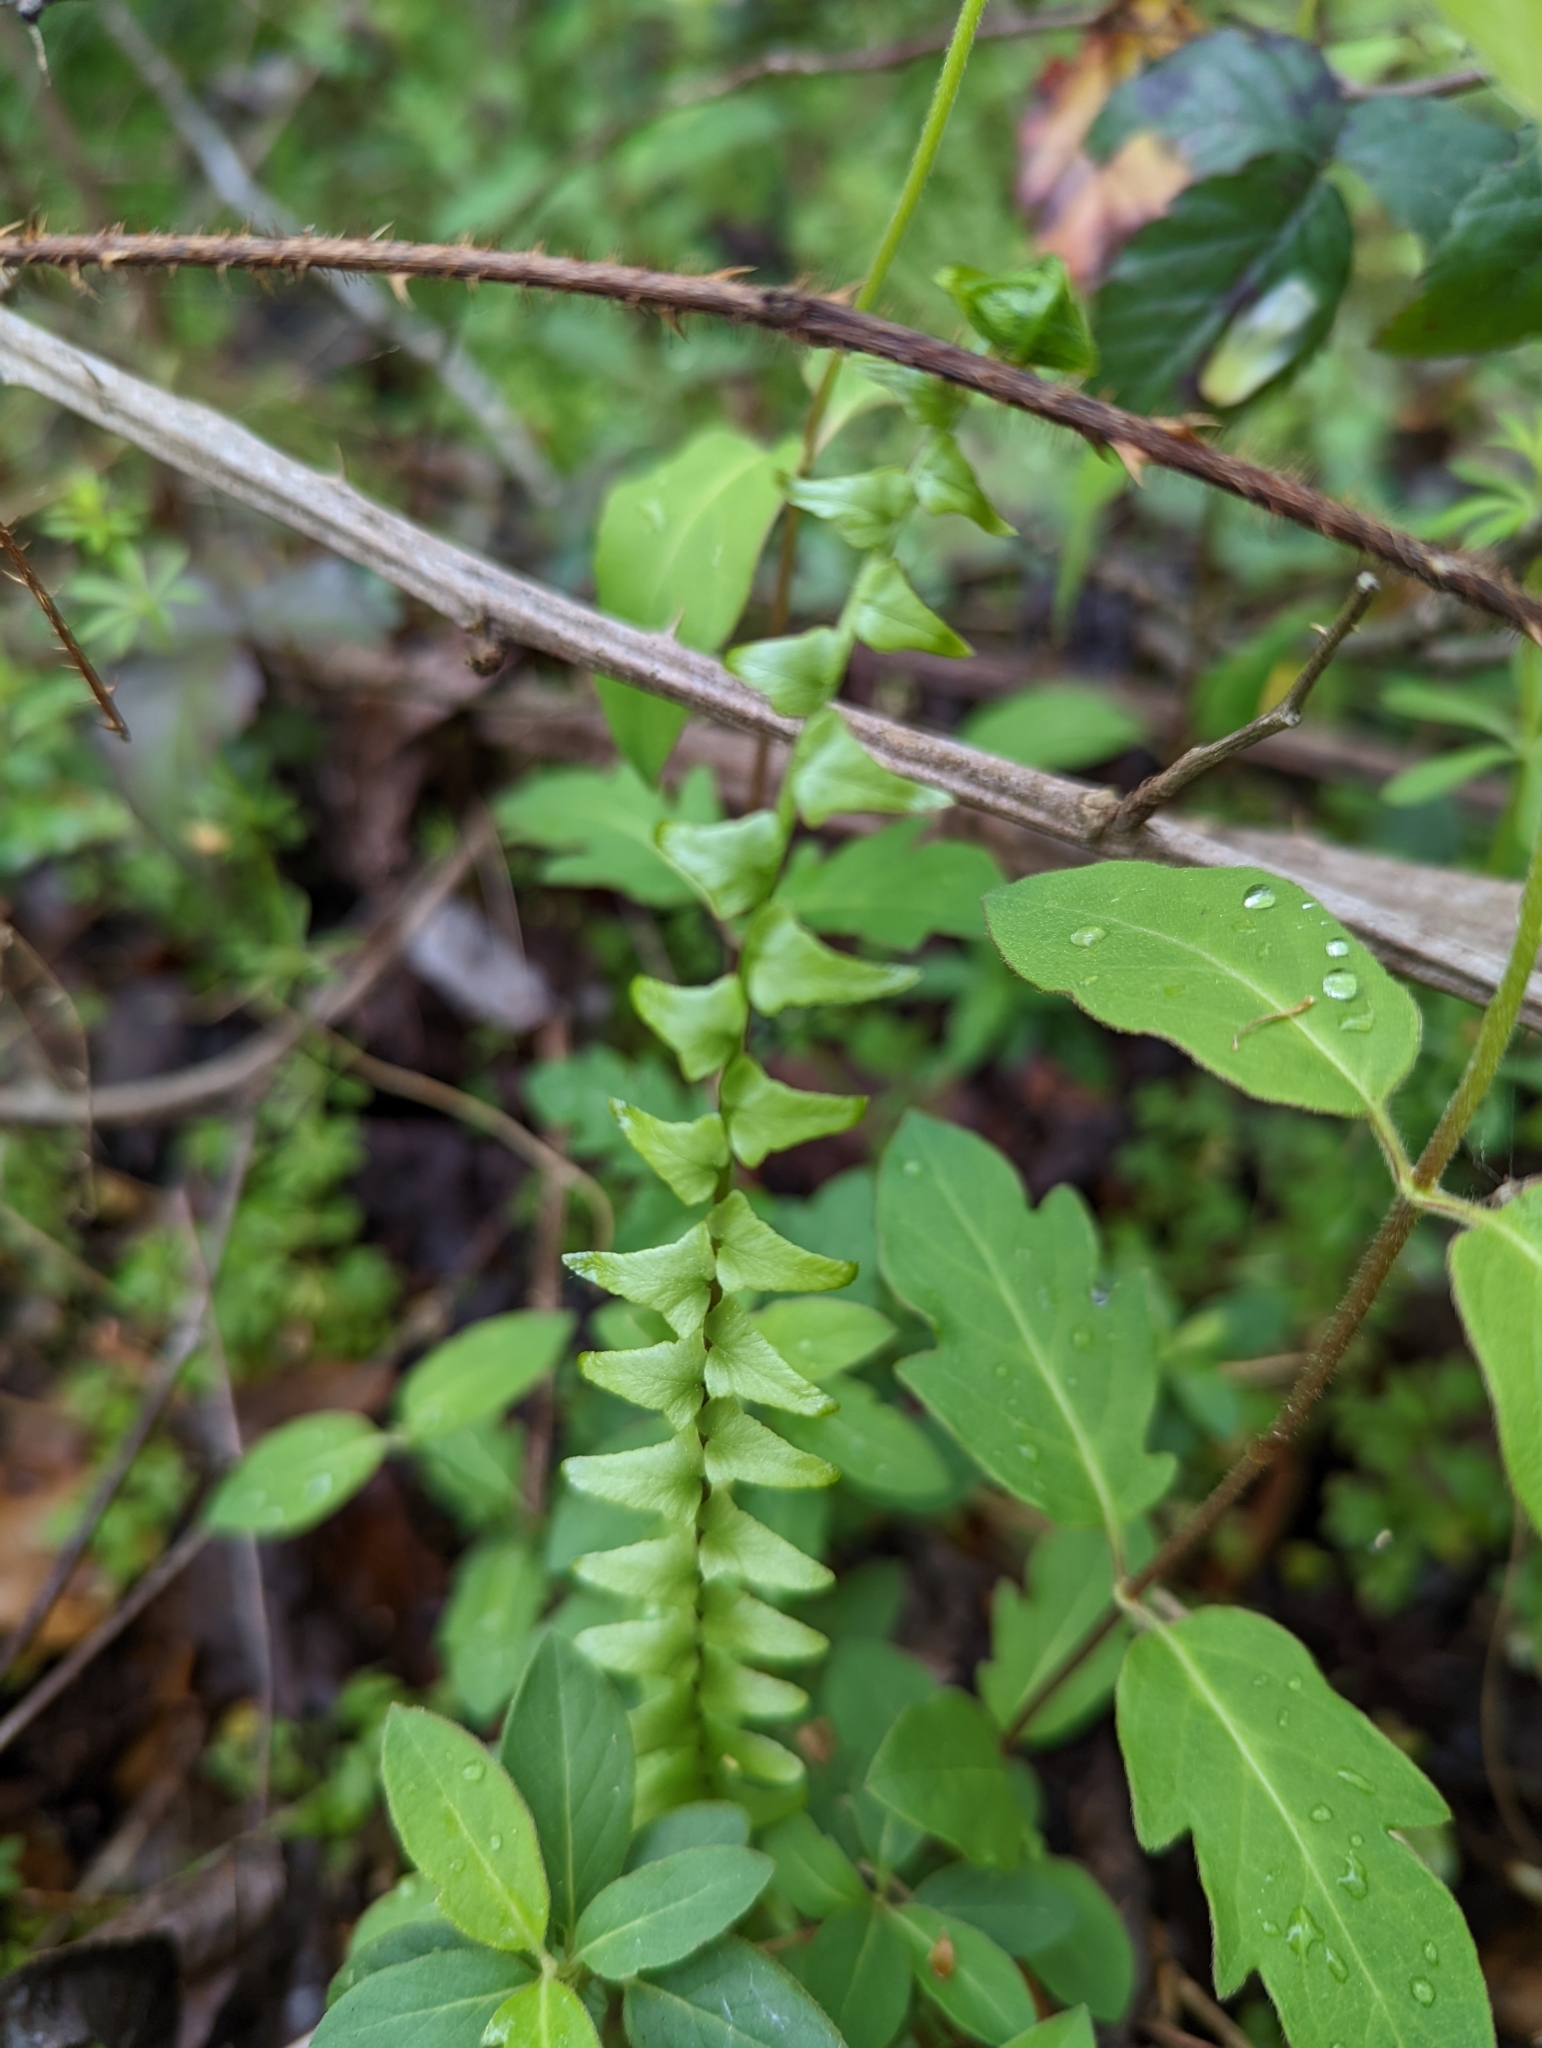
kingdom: Plantae
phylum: Tracheophyta
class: Polypodiopsida
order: Polypodiales
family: Aspleniaceae
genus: Asplenium
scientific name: Asplenium platyneuron
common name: Ebony spleenwort
